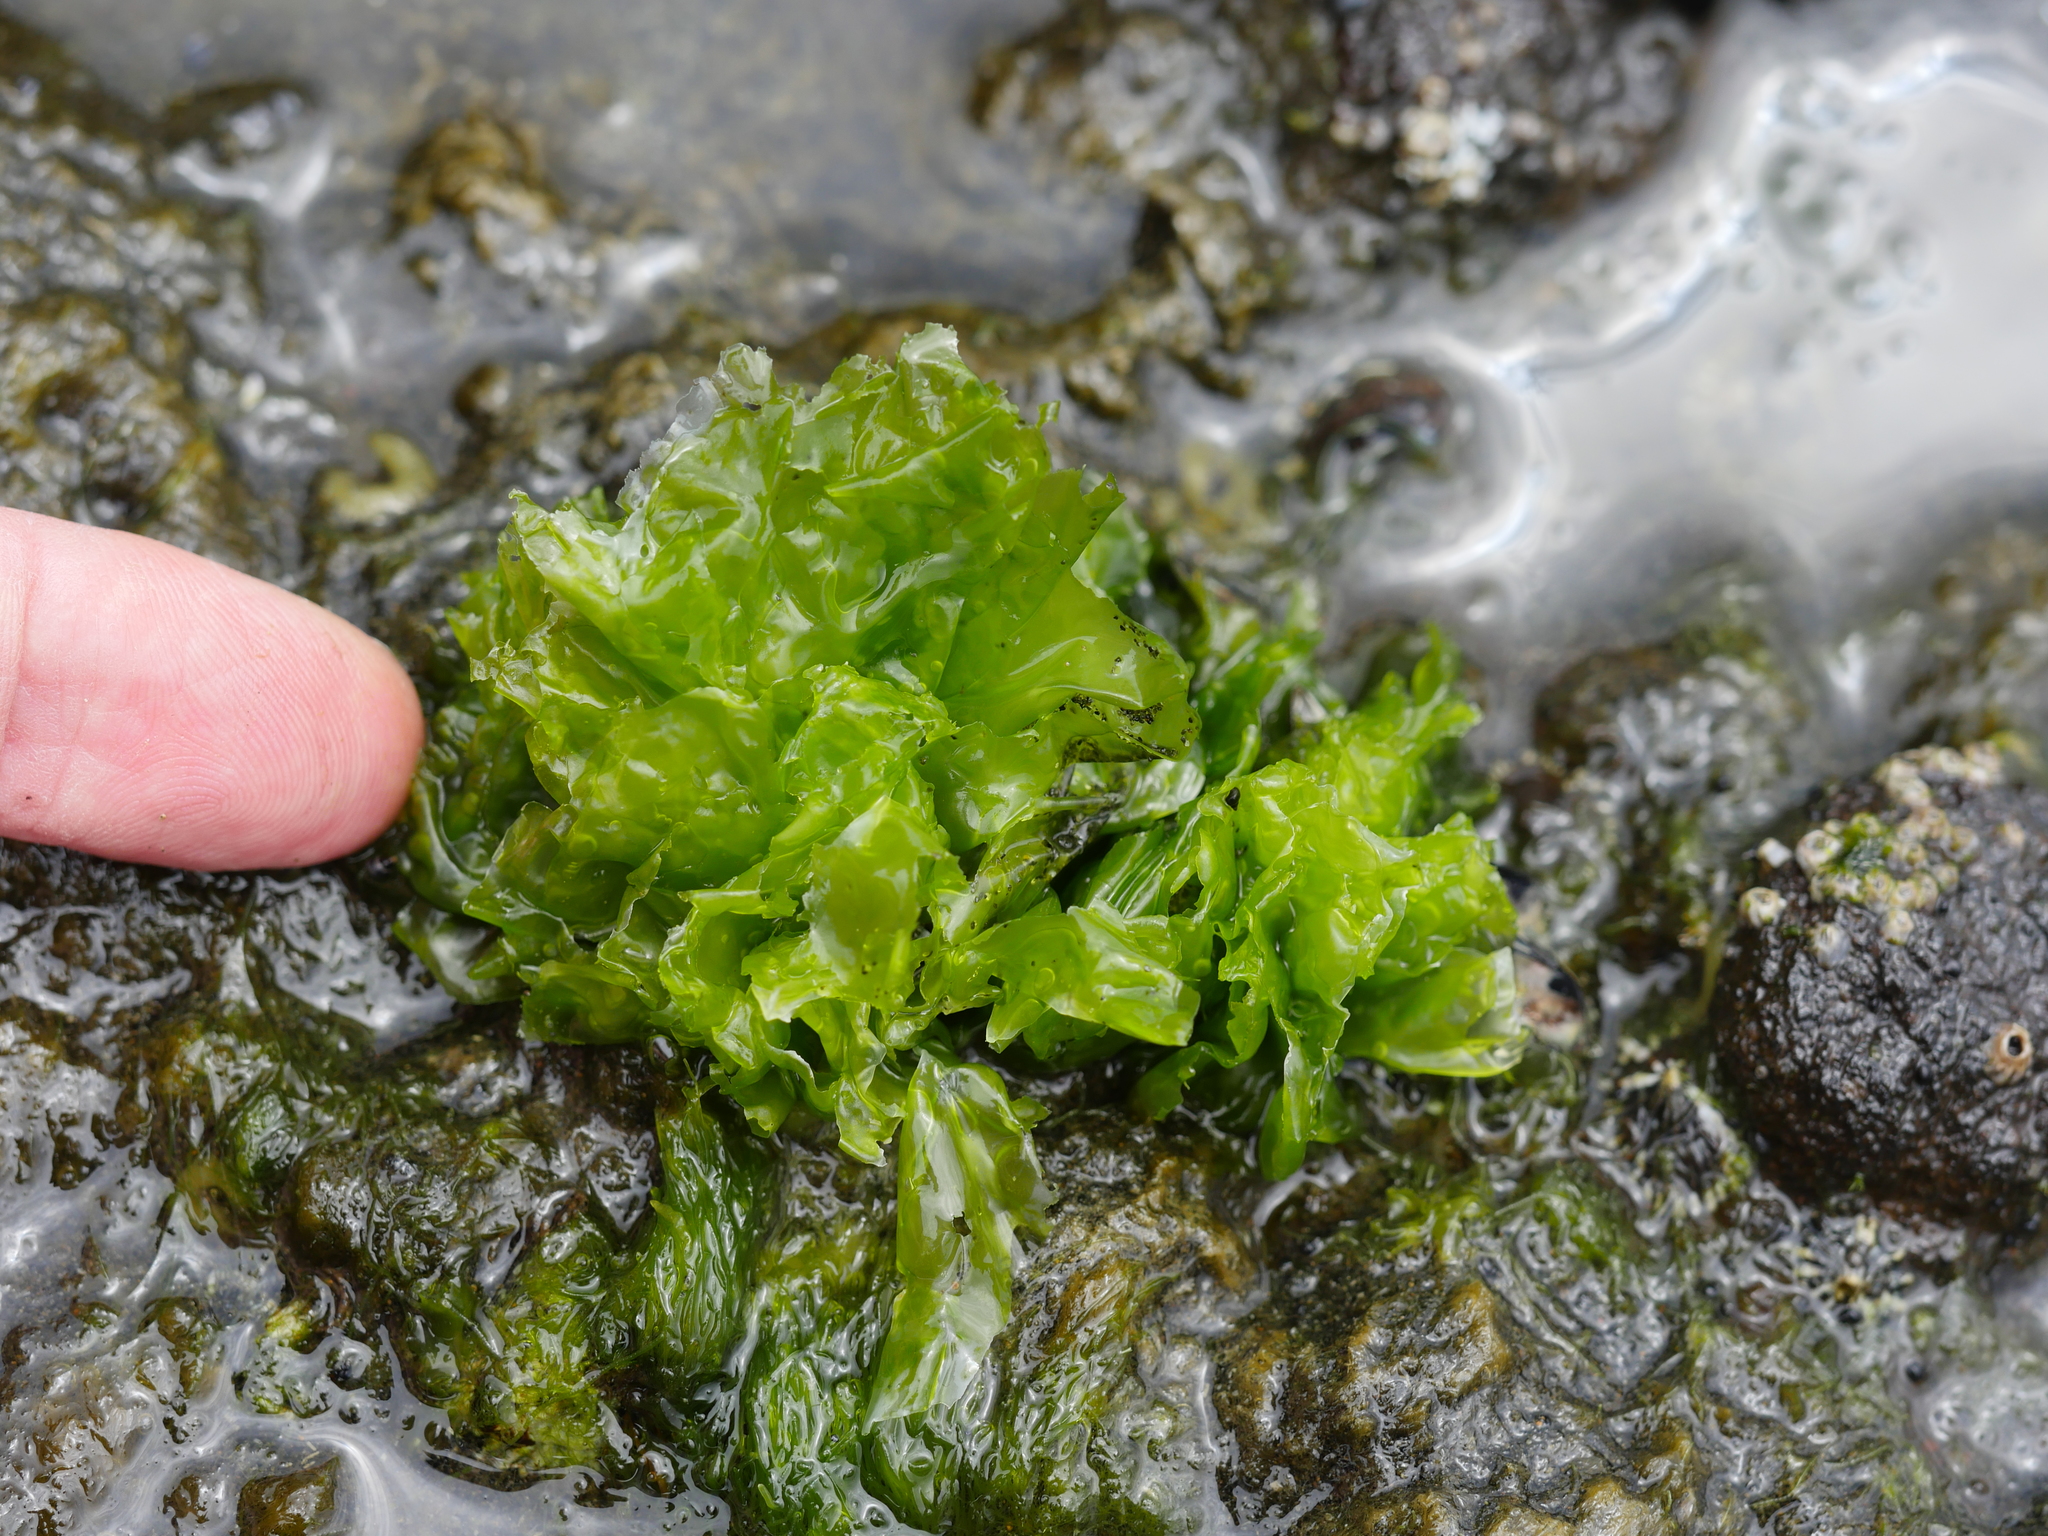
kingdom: Plantae
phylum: Chlorophyta
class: Ulvophyceae
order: Ulvales
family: Ulvaceae
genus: Ulva
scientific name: Ulva
